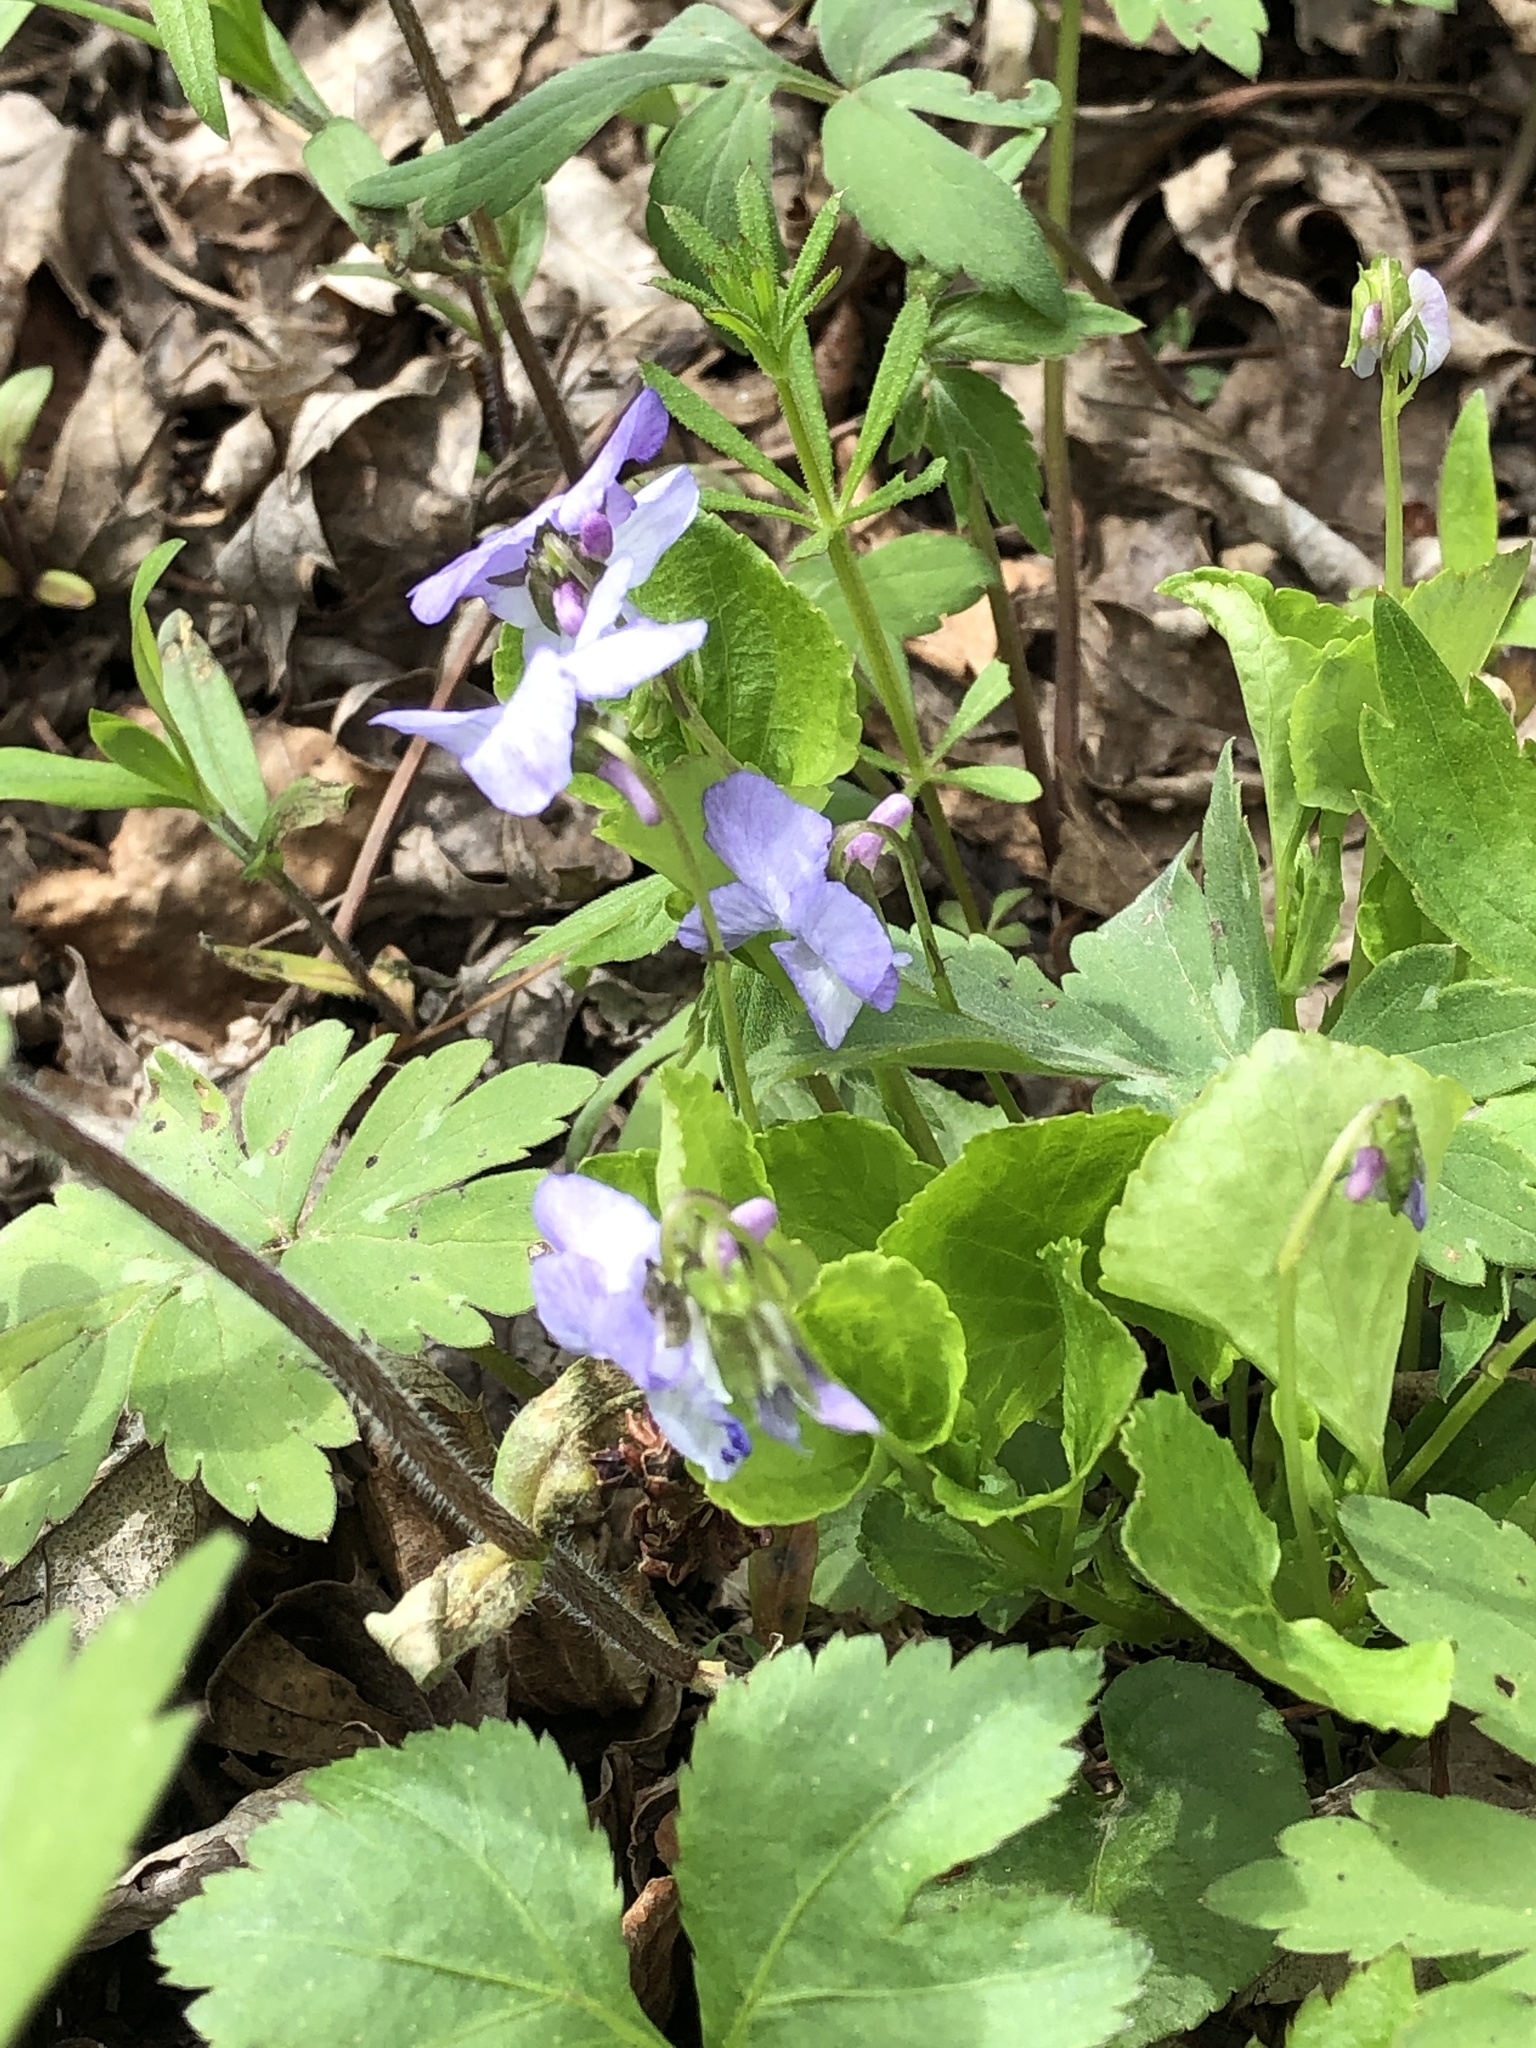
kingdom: Plantae
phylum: Tracheophyta
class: Magnoliopsida
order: Malpighiales
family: Violaceae
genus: Viola
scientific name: Viola labradorica
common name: Labrador violet
